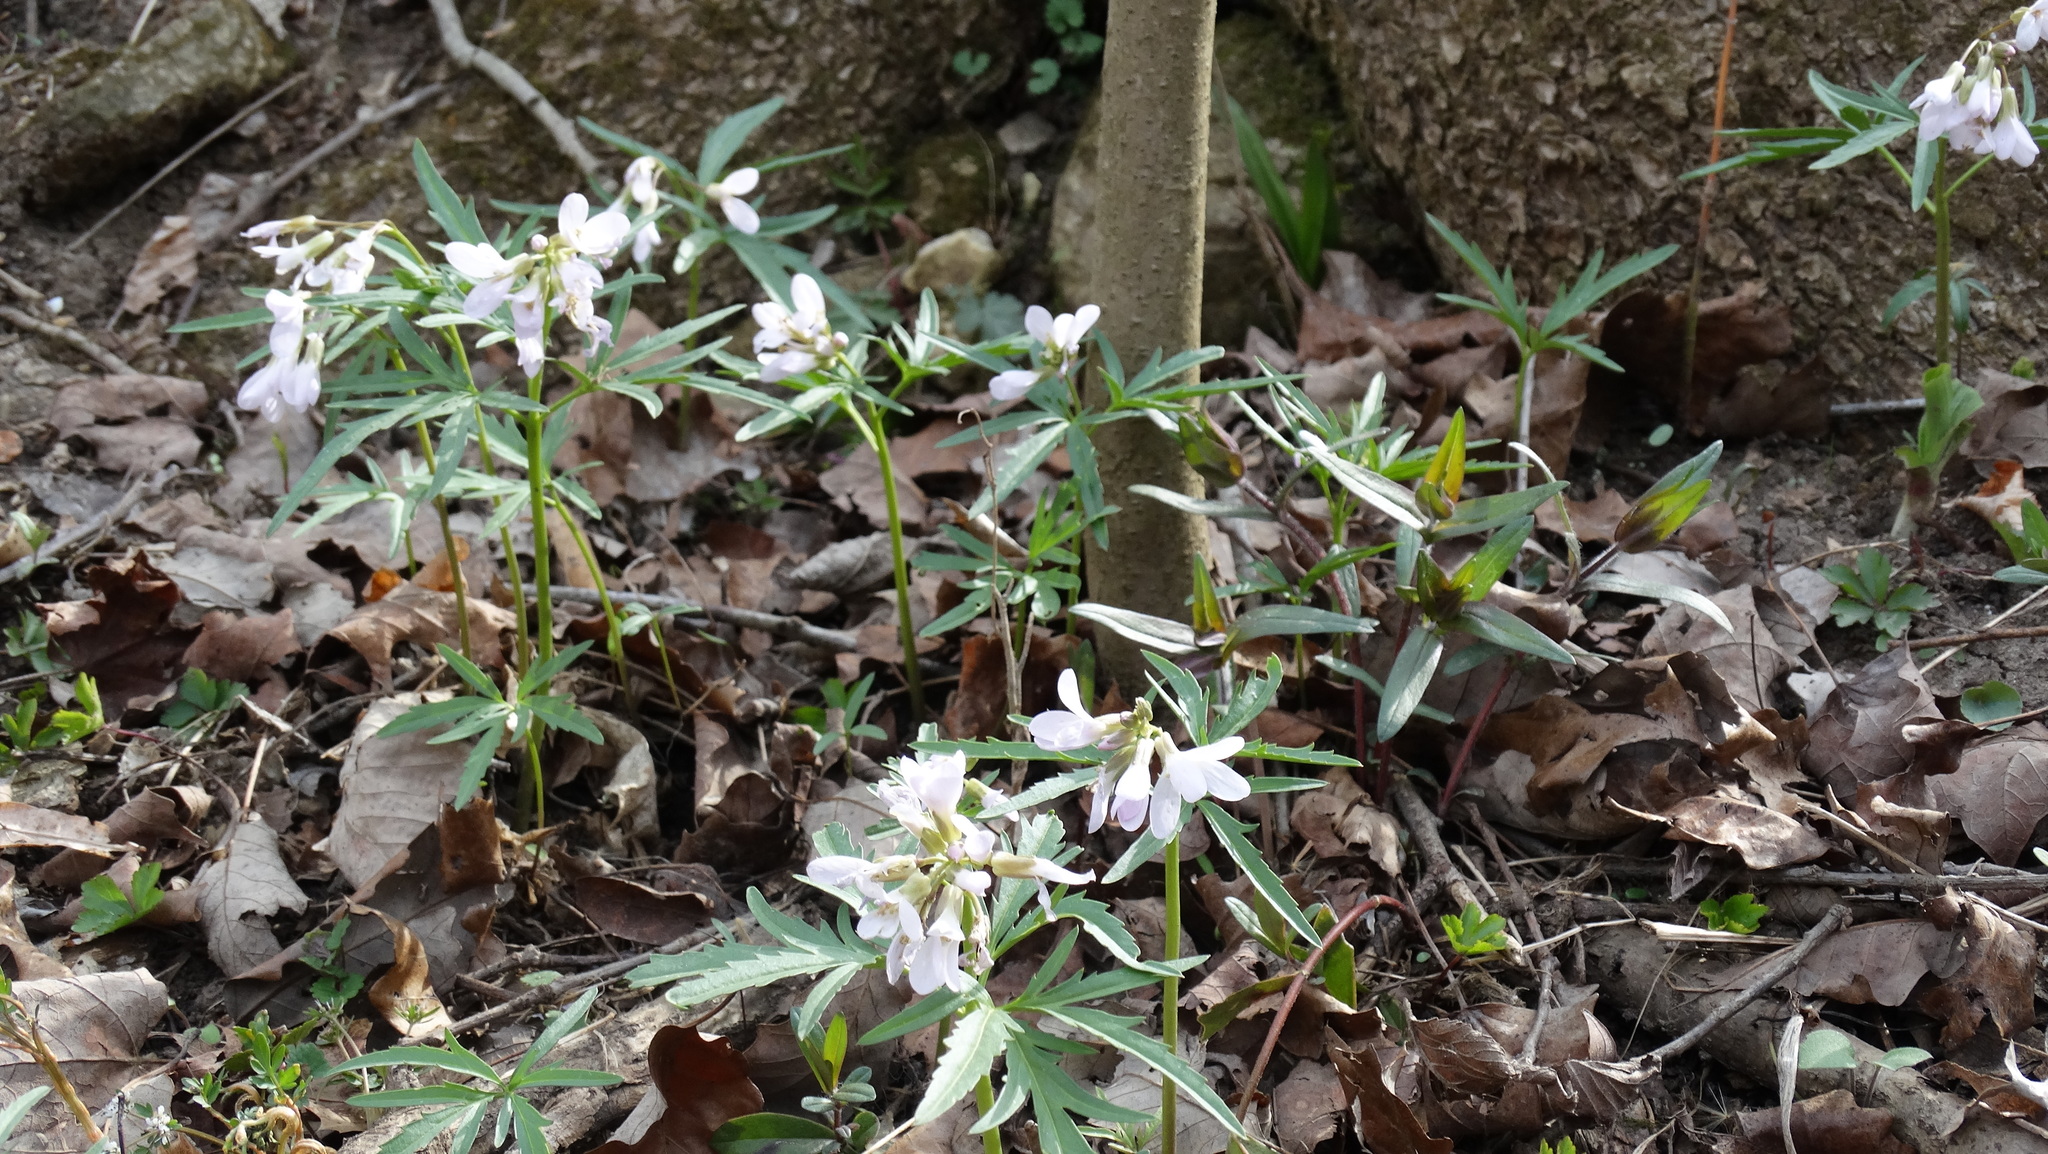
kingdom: Plantae
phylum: Tracheophyta
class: Magnoliopsida
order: Brassicales
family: Brassicaceae
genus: Cardamine
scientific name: Cardamine concatenata
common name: Cut-leaf toothcup
